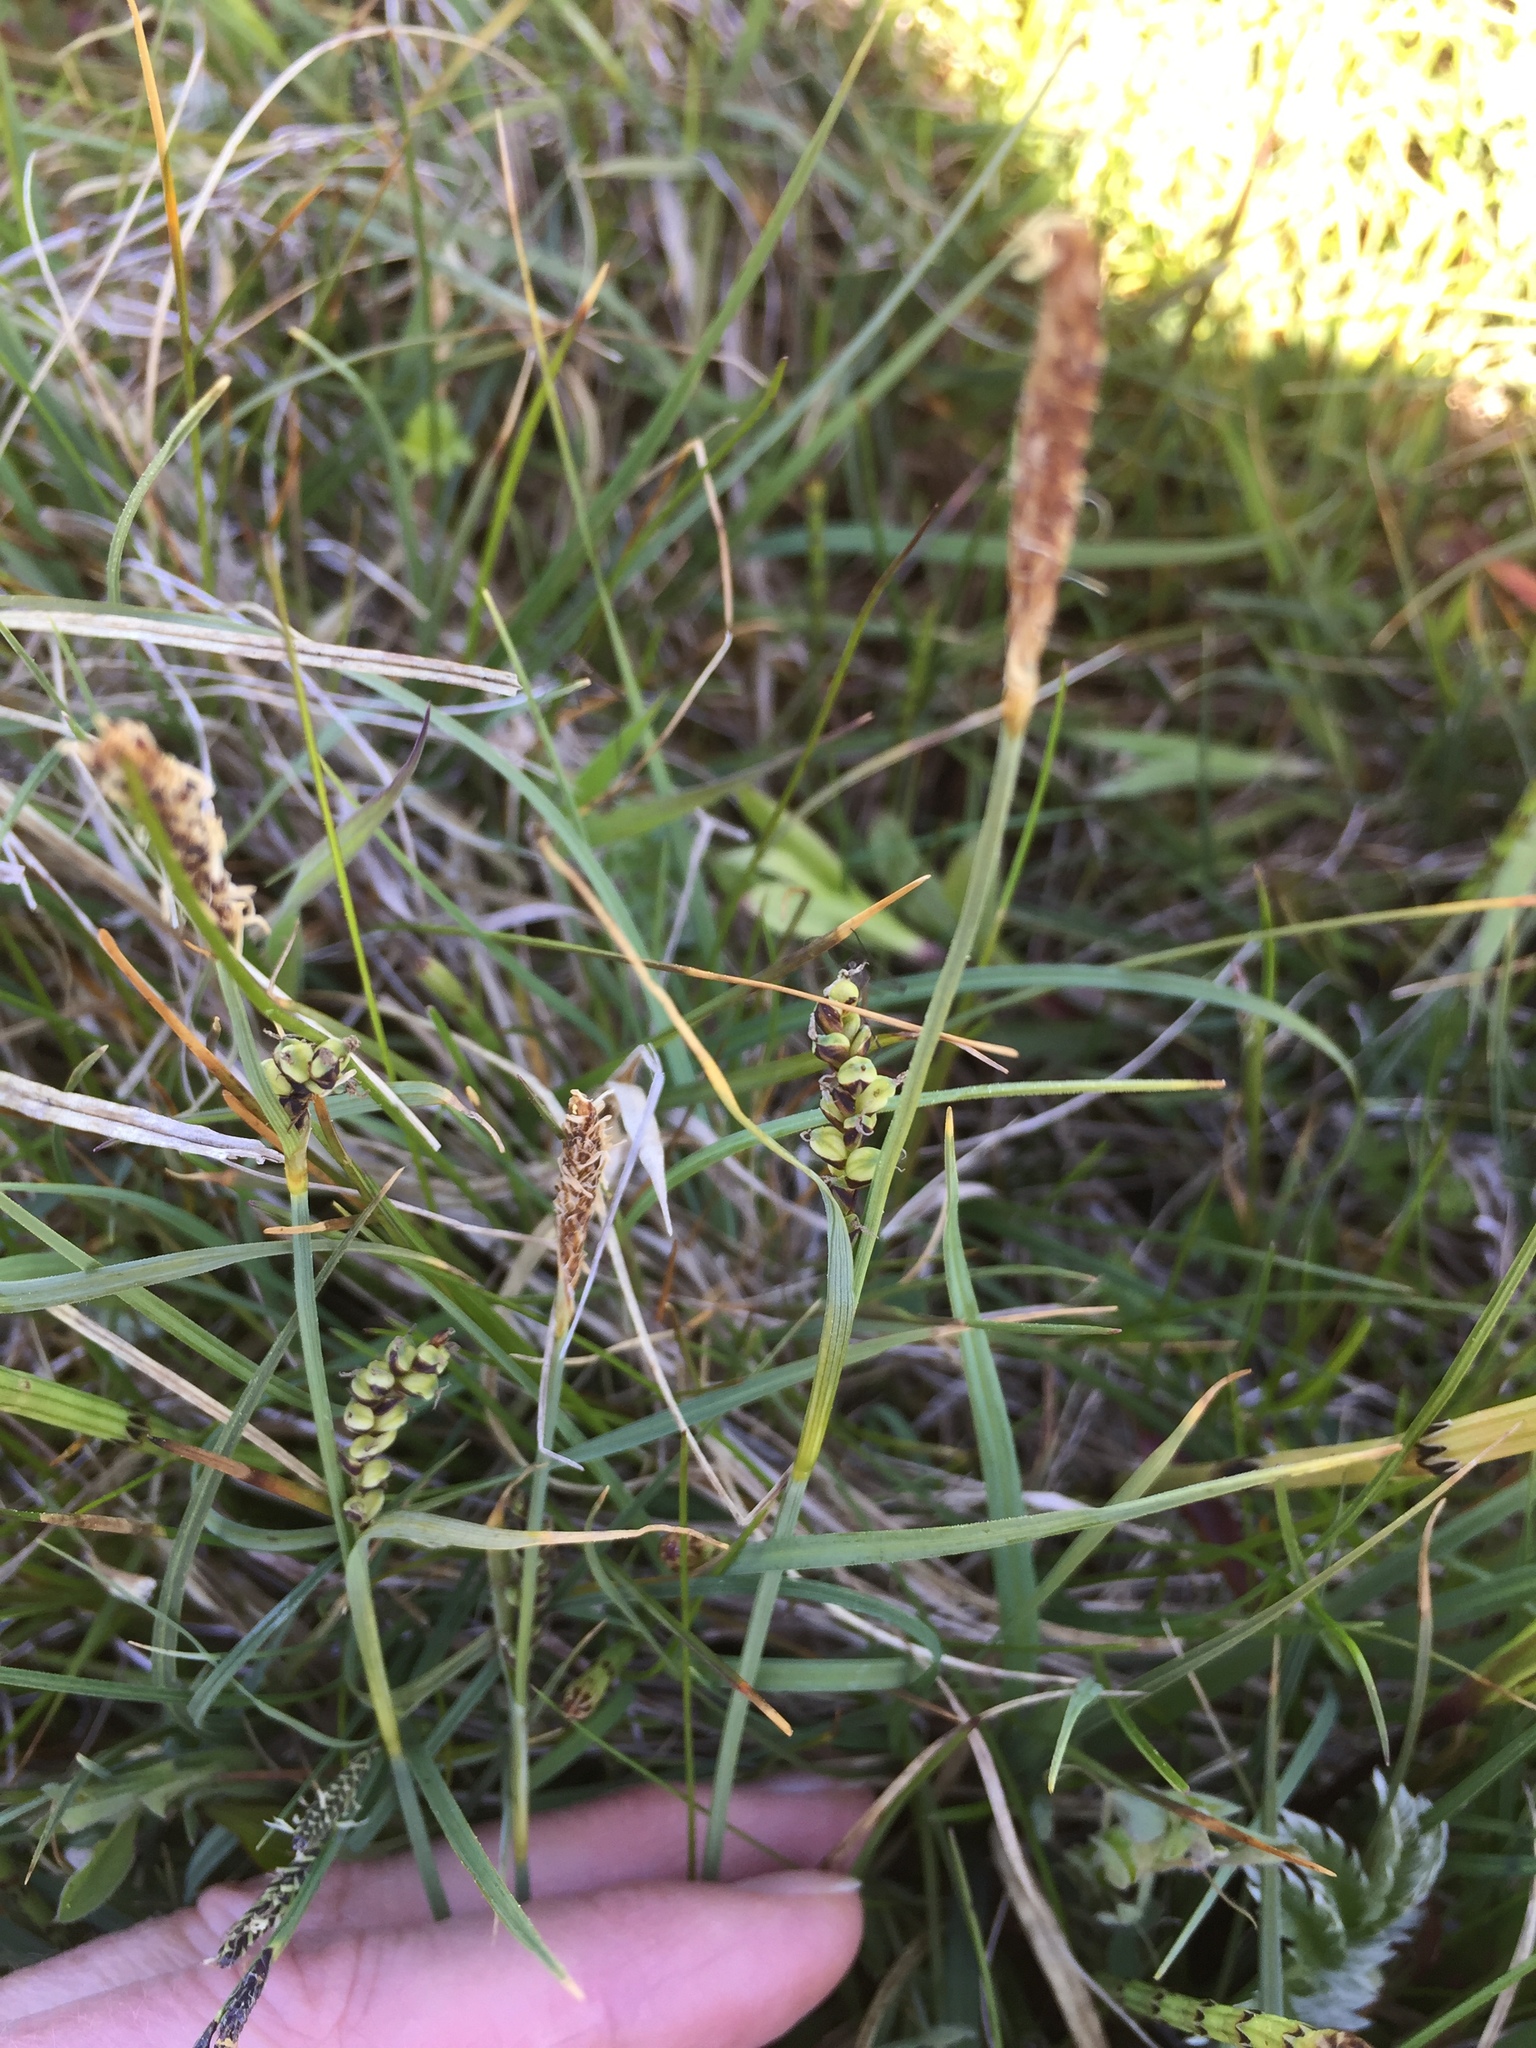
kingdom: Plantae
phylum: Tracheophyta
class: Liliopsida
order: Poales
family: Cyperaceae
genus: Carex
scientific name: Carex panicea
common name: Carnation sedge
